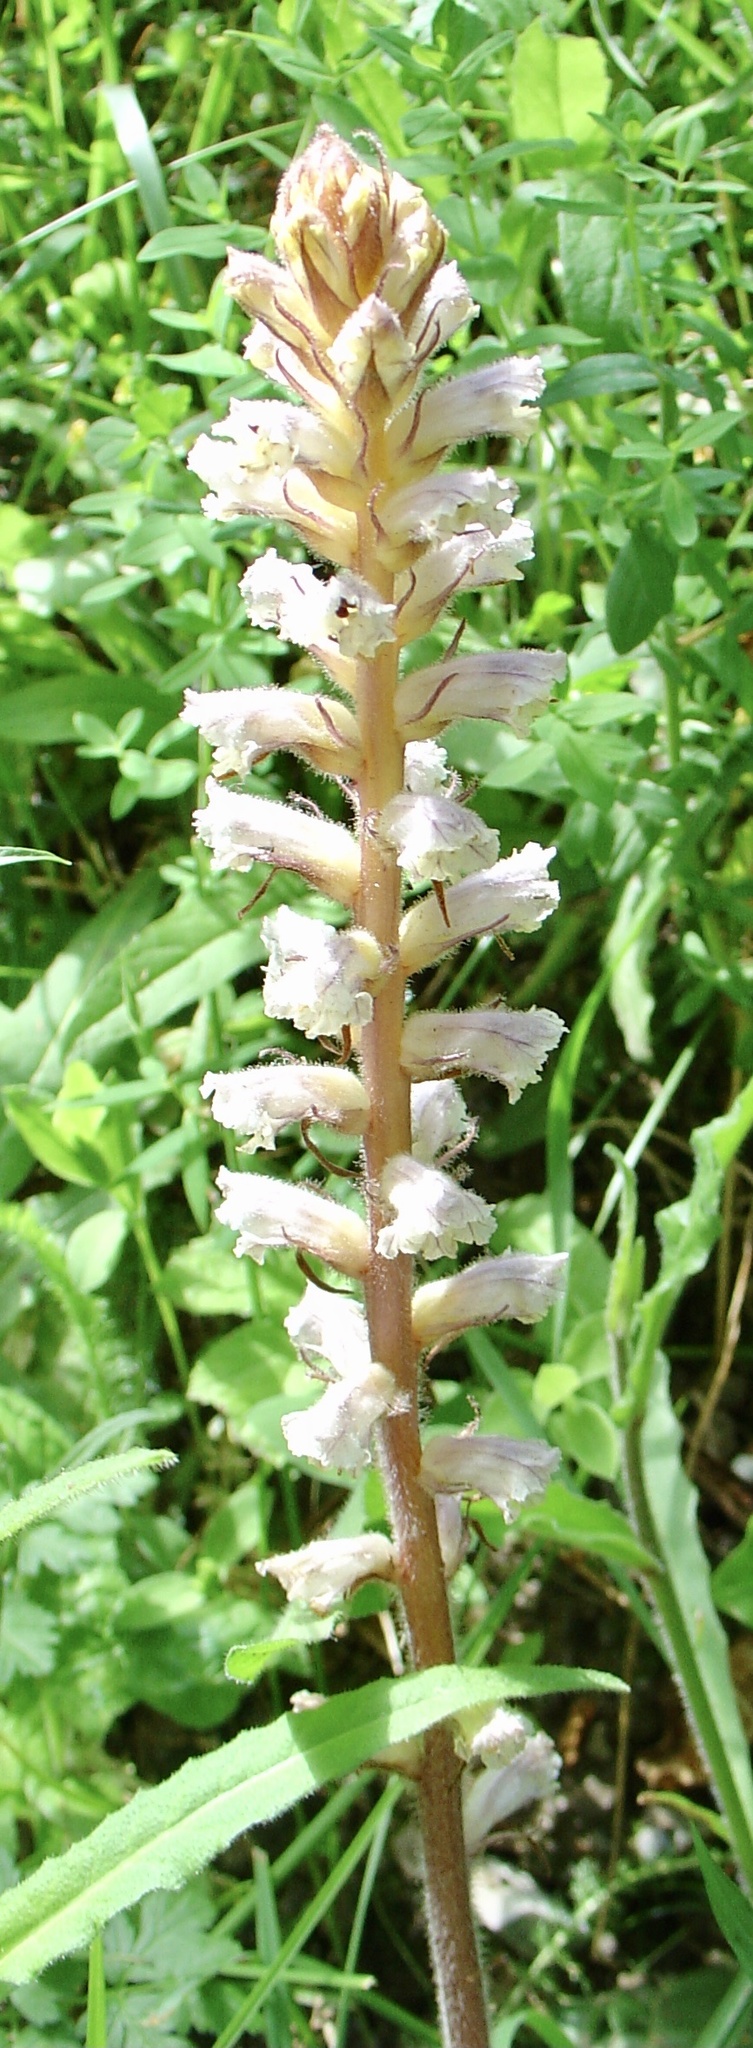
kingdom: Plantae
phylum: Tracheophyta
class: Magnoliopsida
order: Lamiales
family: Orobanchaceae
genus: Orobanche
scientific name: Orobanche picridis
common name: Oxtongue broomrape
